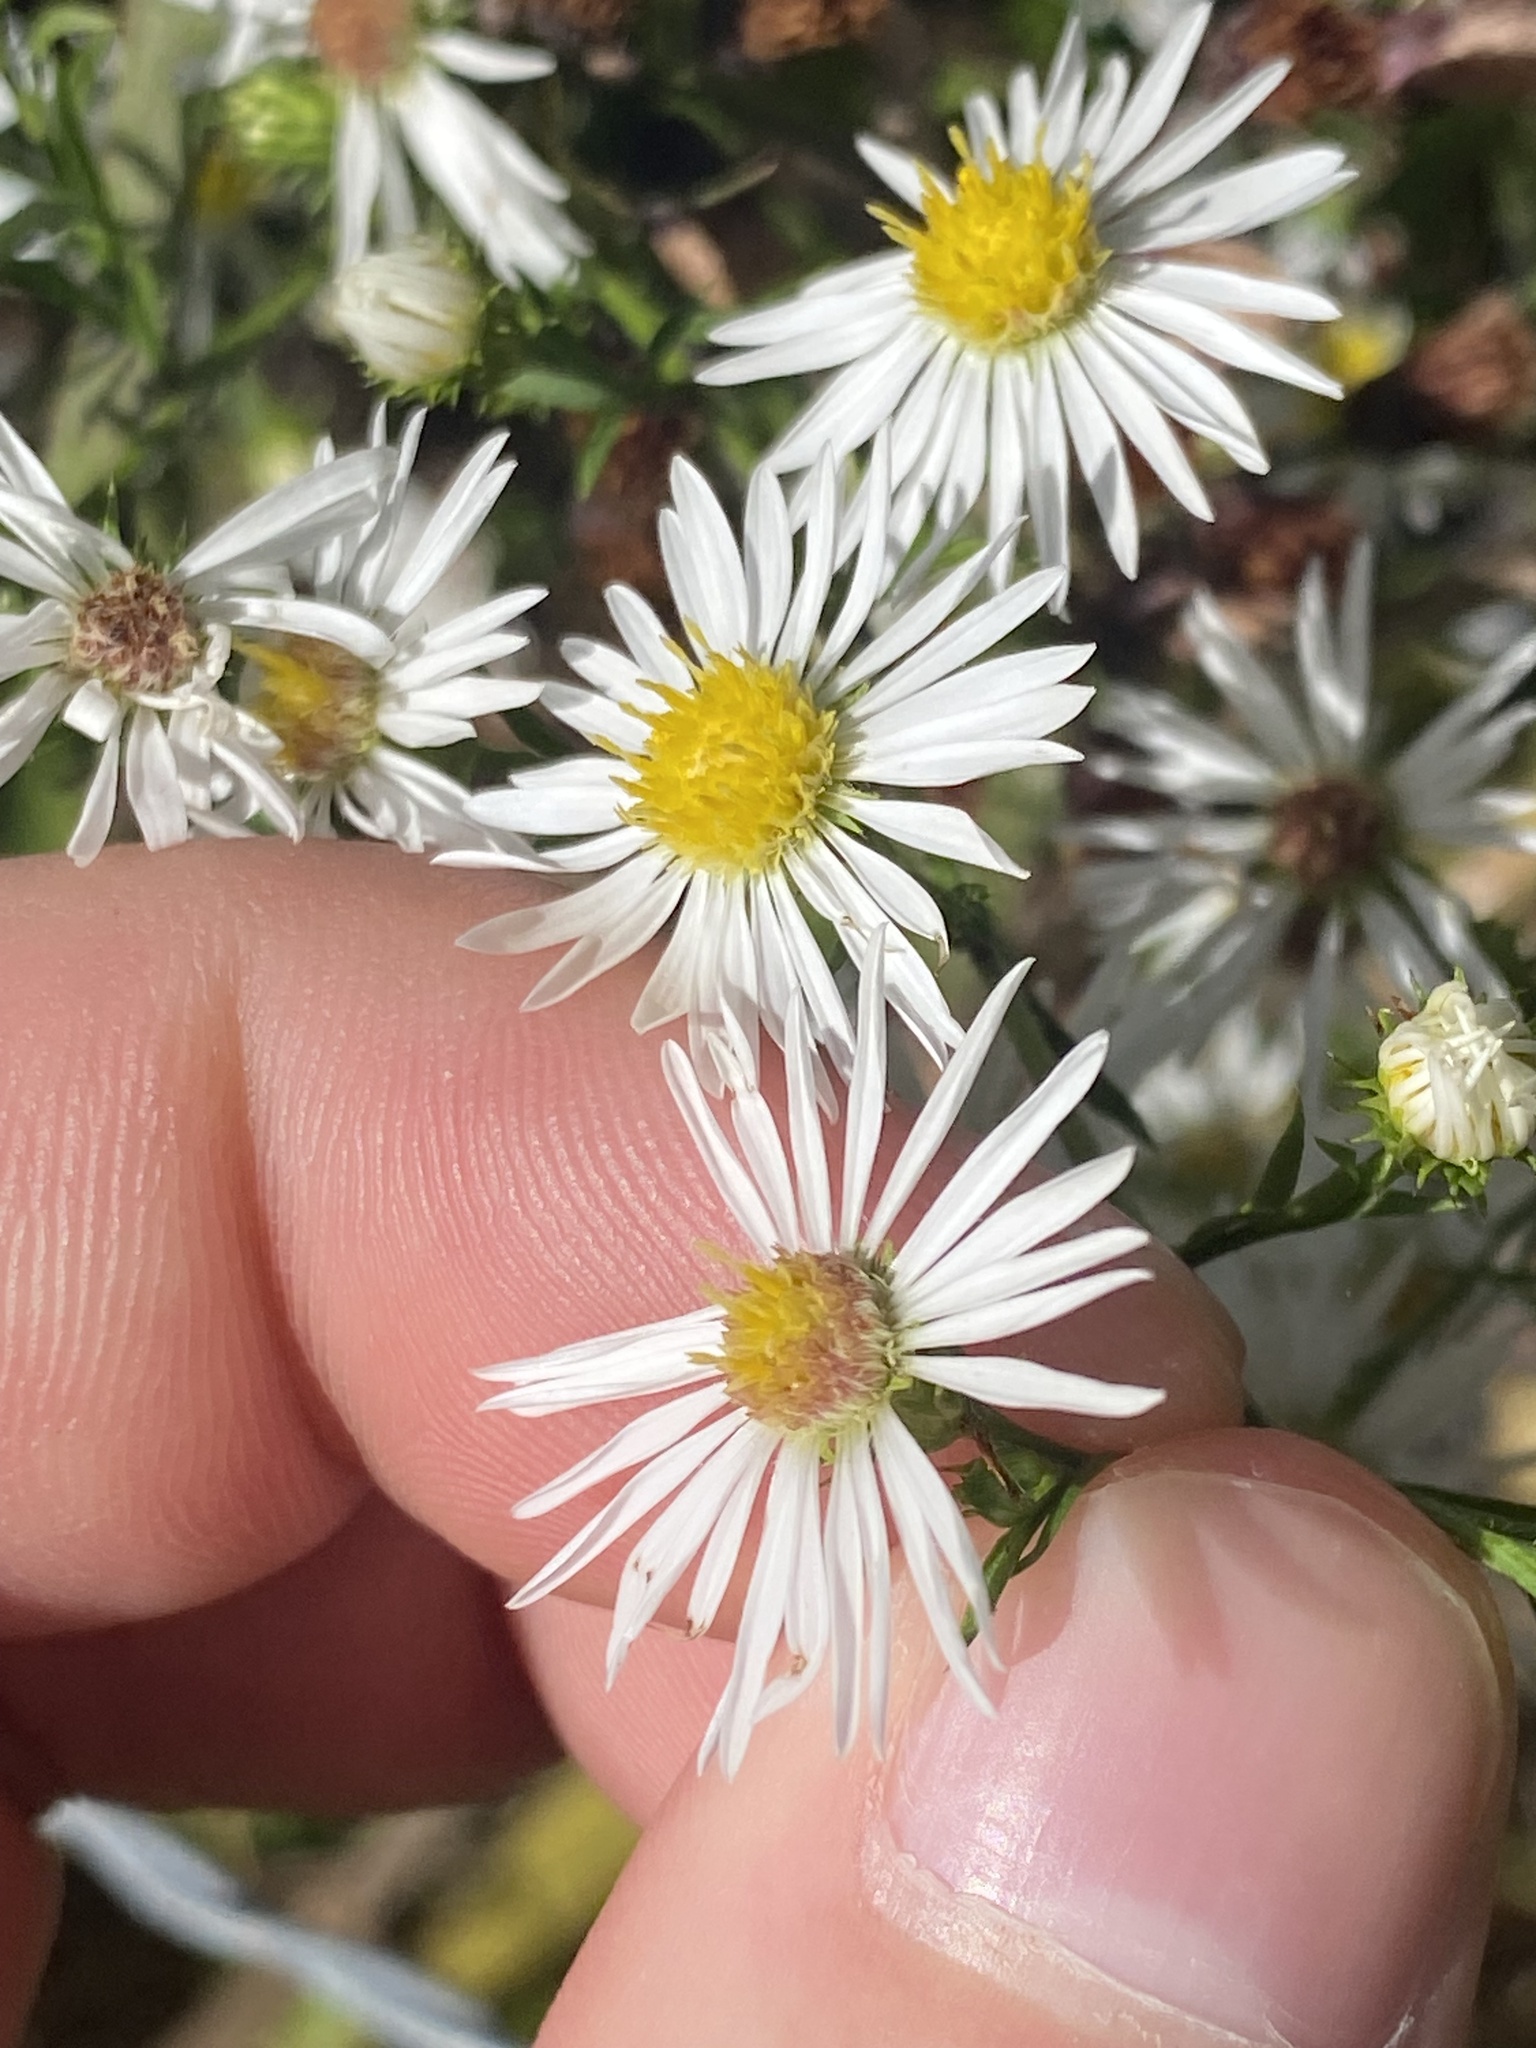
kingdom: Plantae
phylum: Tracheophyta
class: Magnoliopsida
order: Asterales
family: Asteraceae
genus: Symphyotrichum
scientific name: Symphyotrichum pilosum
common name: Awl aster
